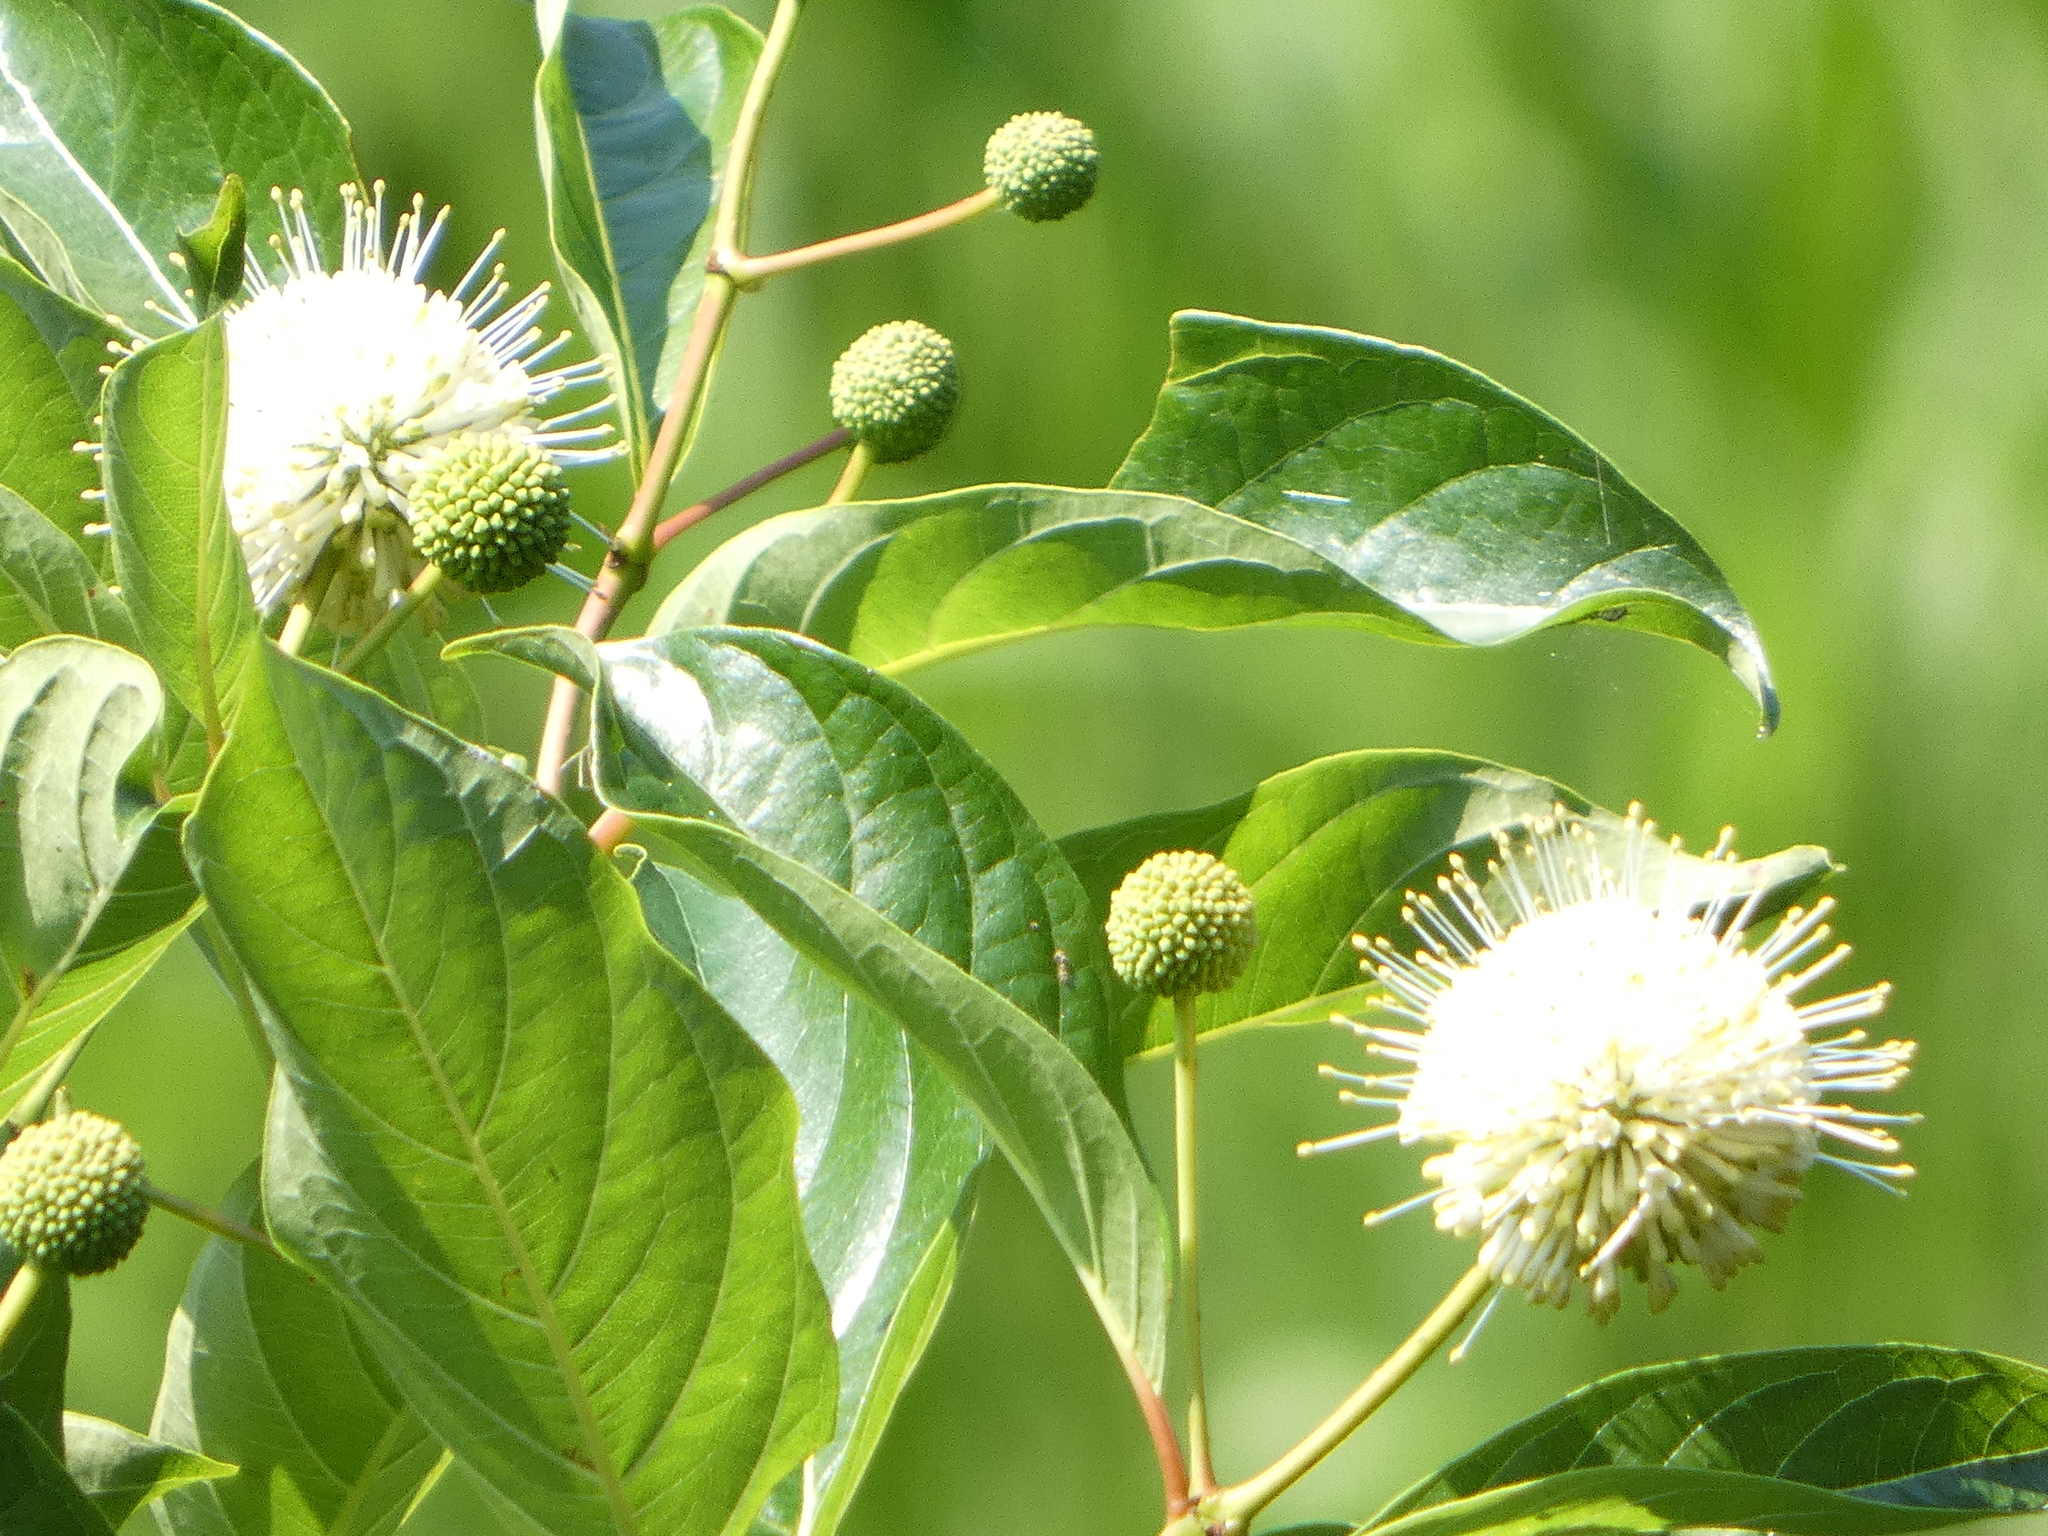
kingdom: Plantae
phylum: Tracheophyta
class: Magnoliopsida
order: Gentianales
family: Rubiaceae
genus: Cephalanthus
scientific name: Cephalanthus occidentalis
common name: Button-willow
